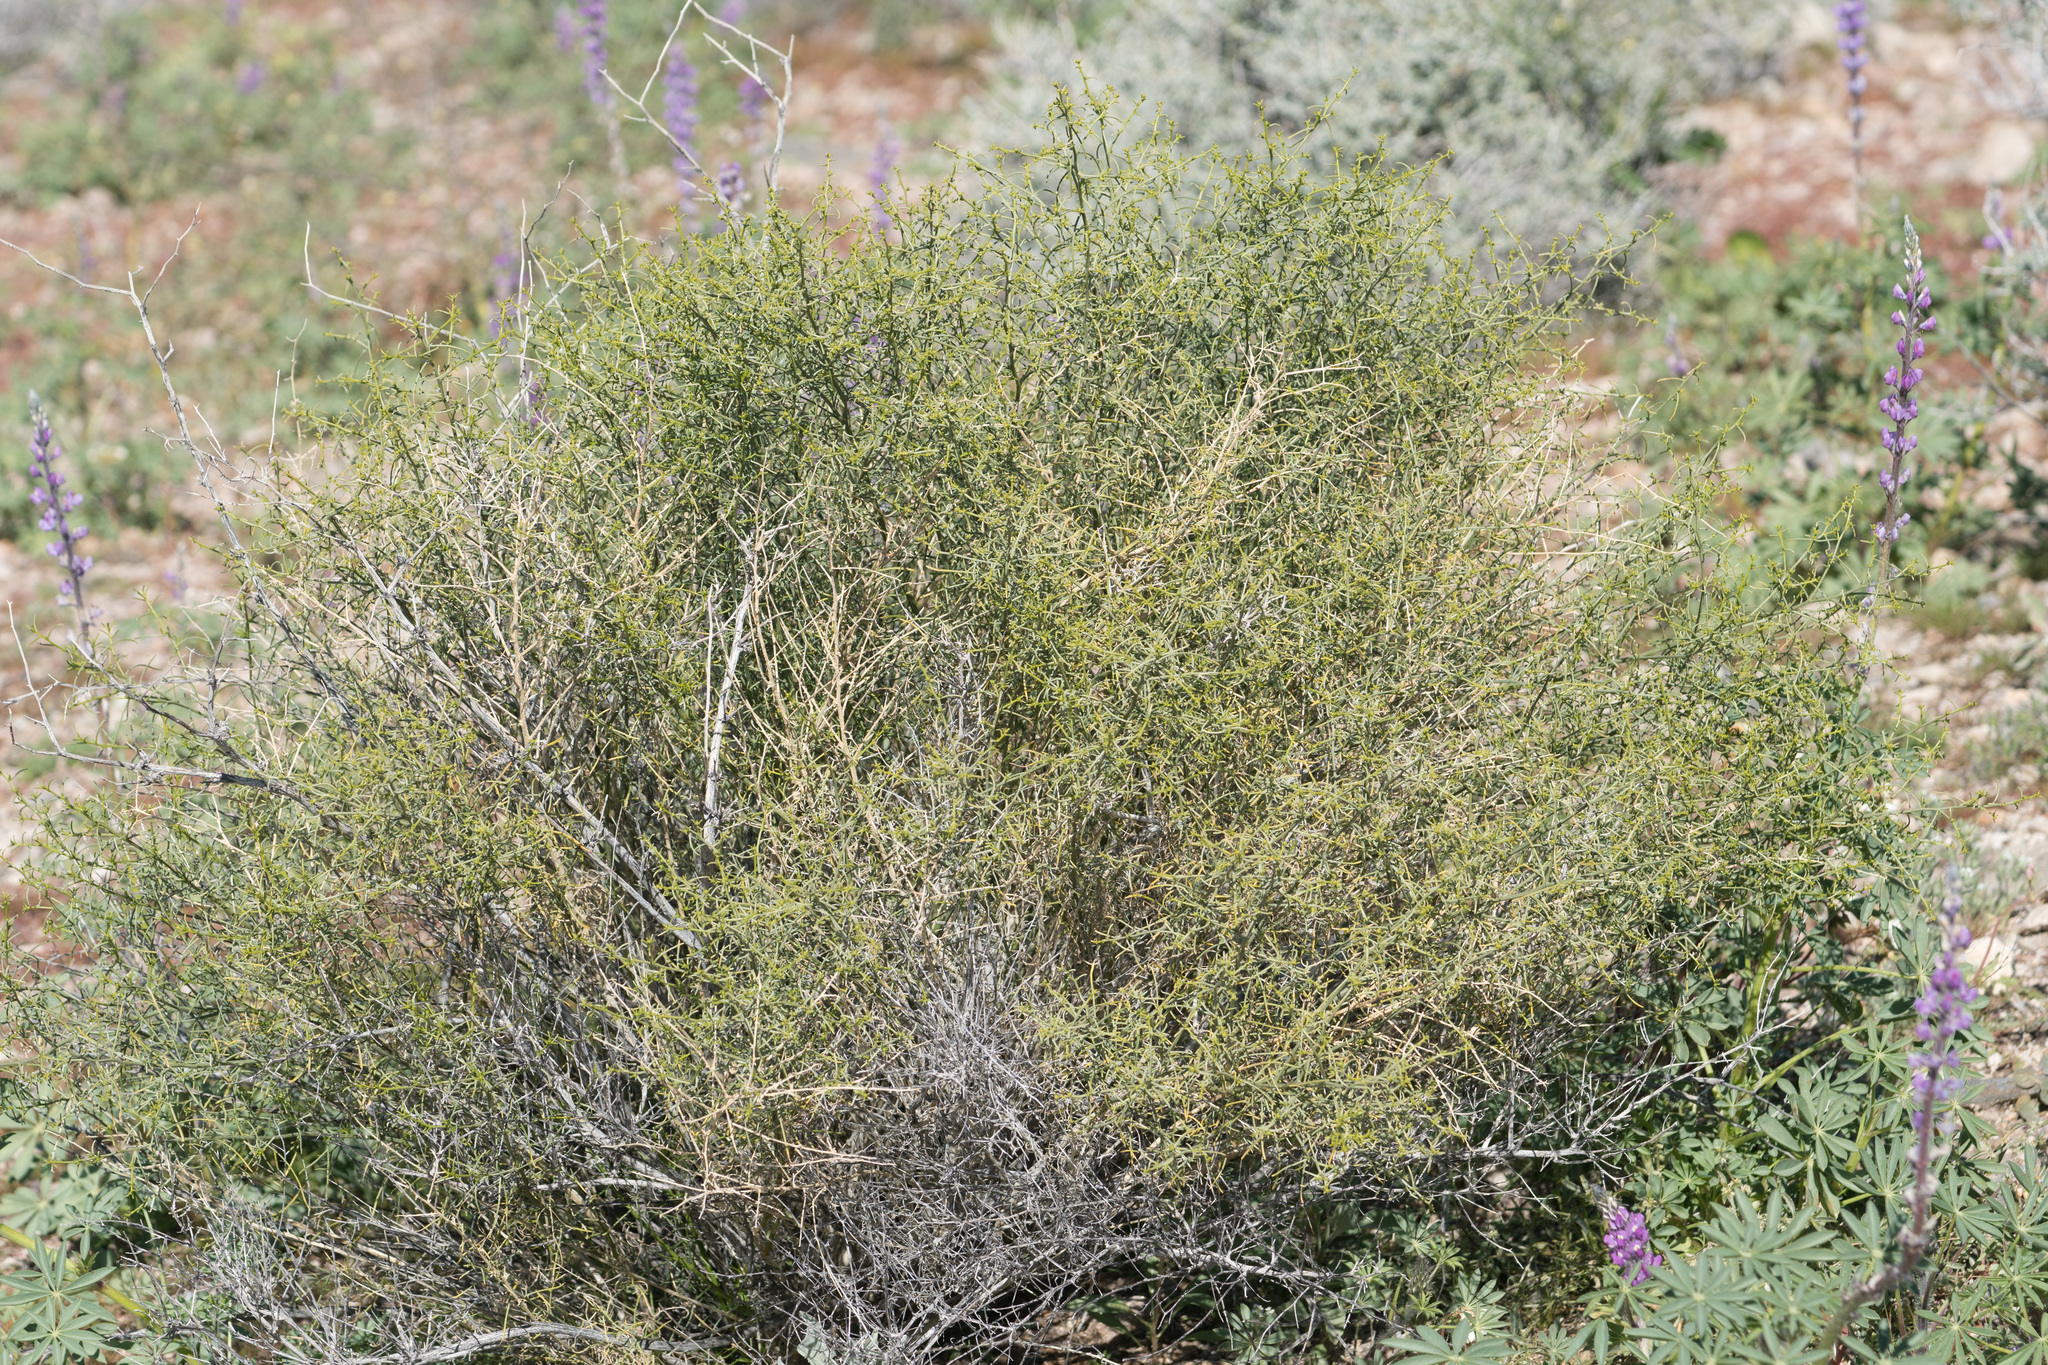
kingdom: Plantae
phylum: Tracheophyta
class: Magnoliopsida
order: Asterales
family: Asteraceae
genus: Ambrosia
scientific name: Ambrosia salsola
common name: Burrobrush
